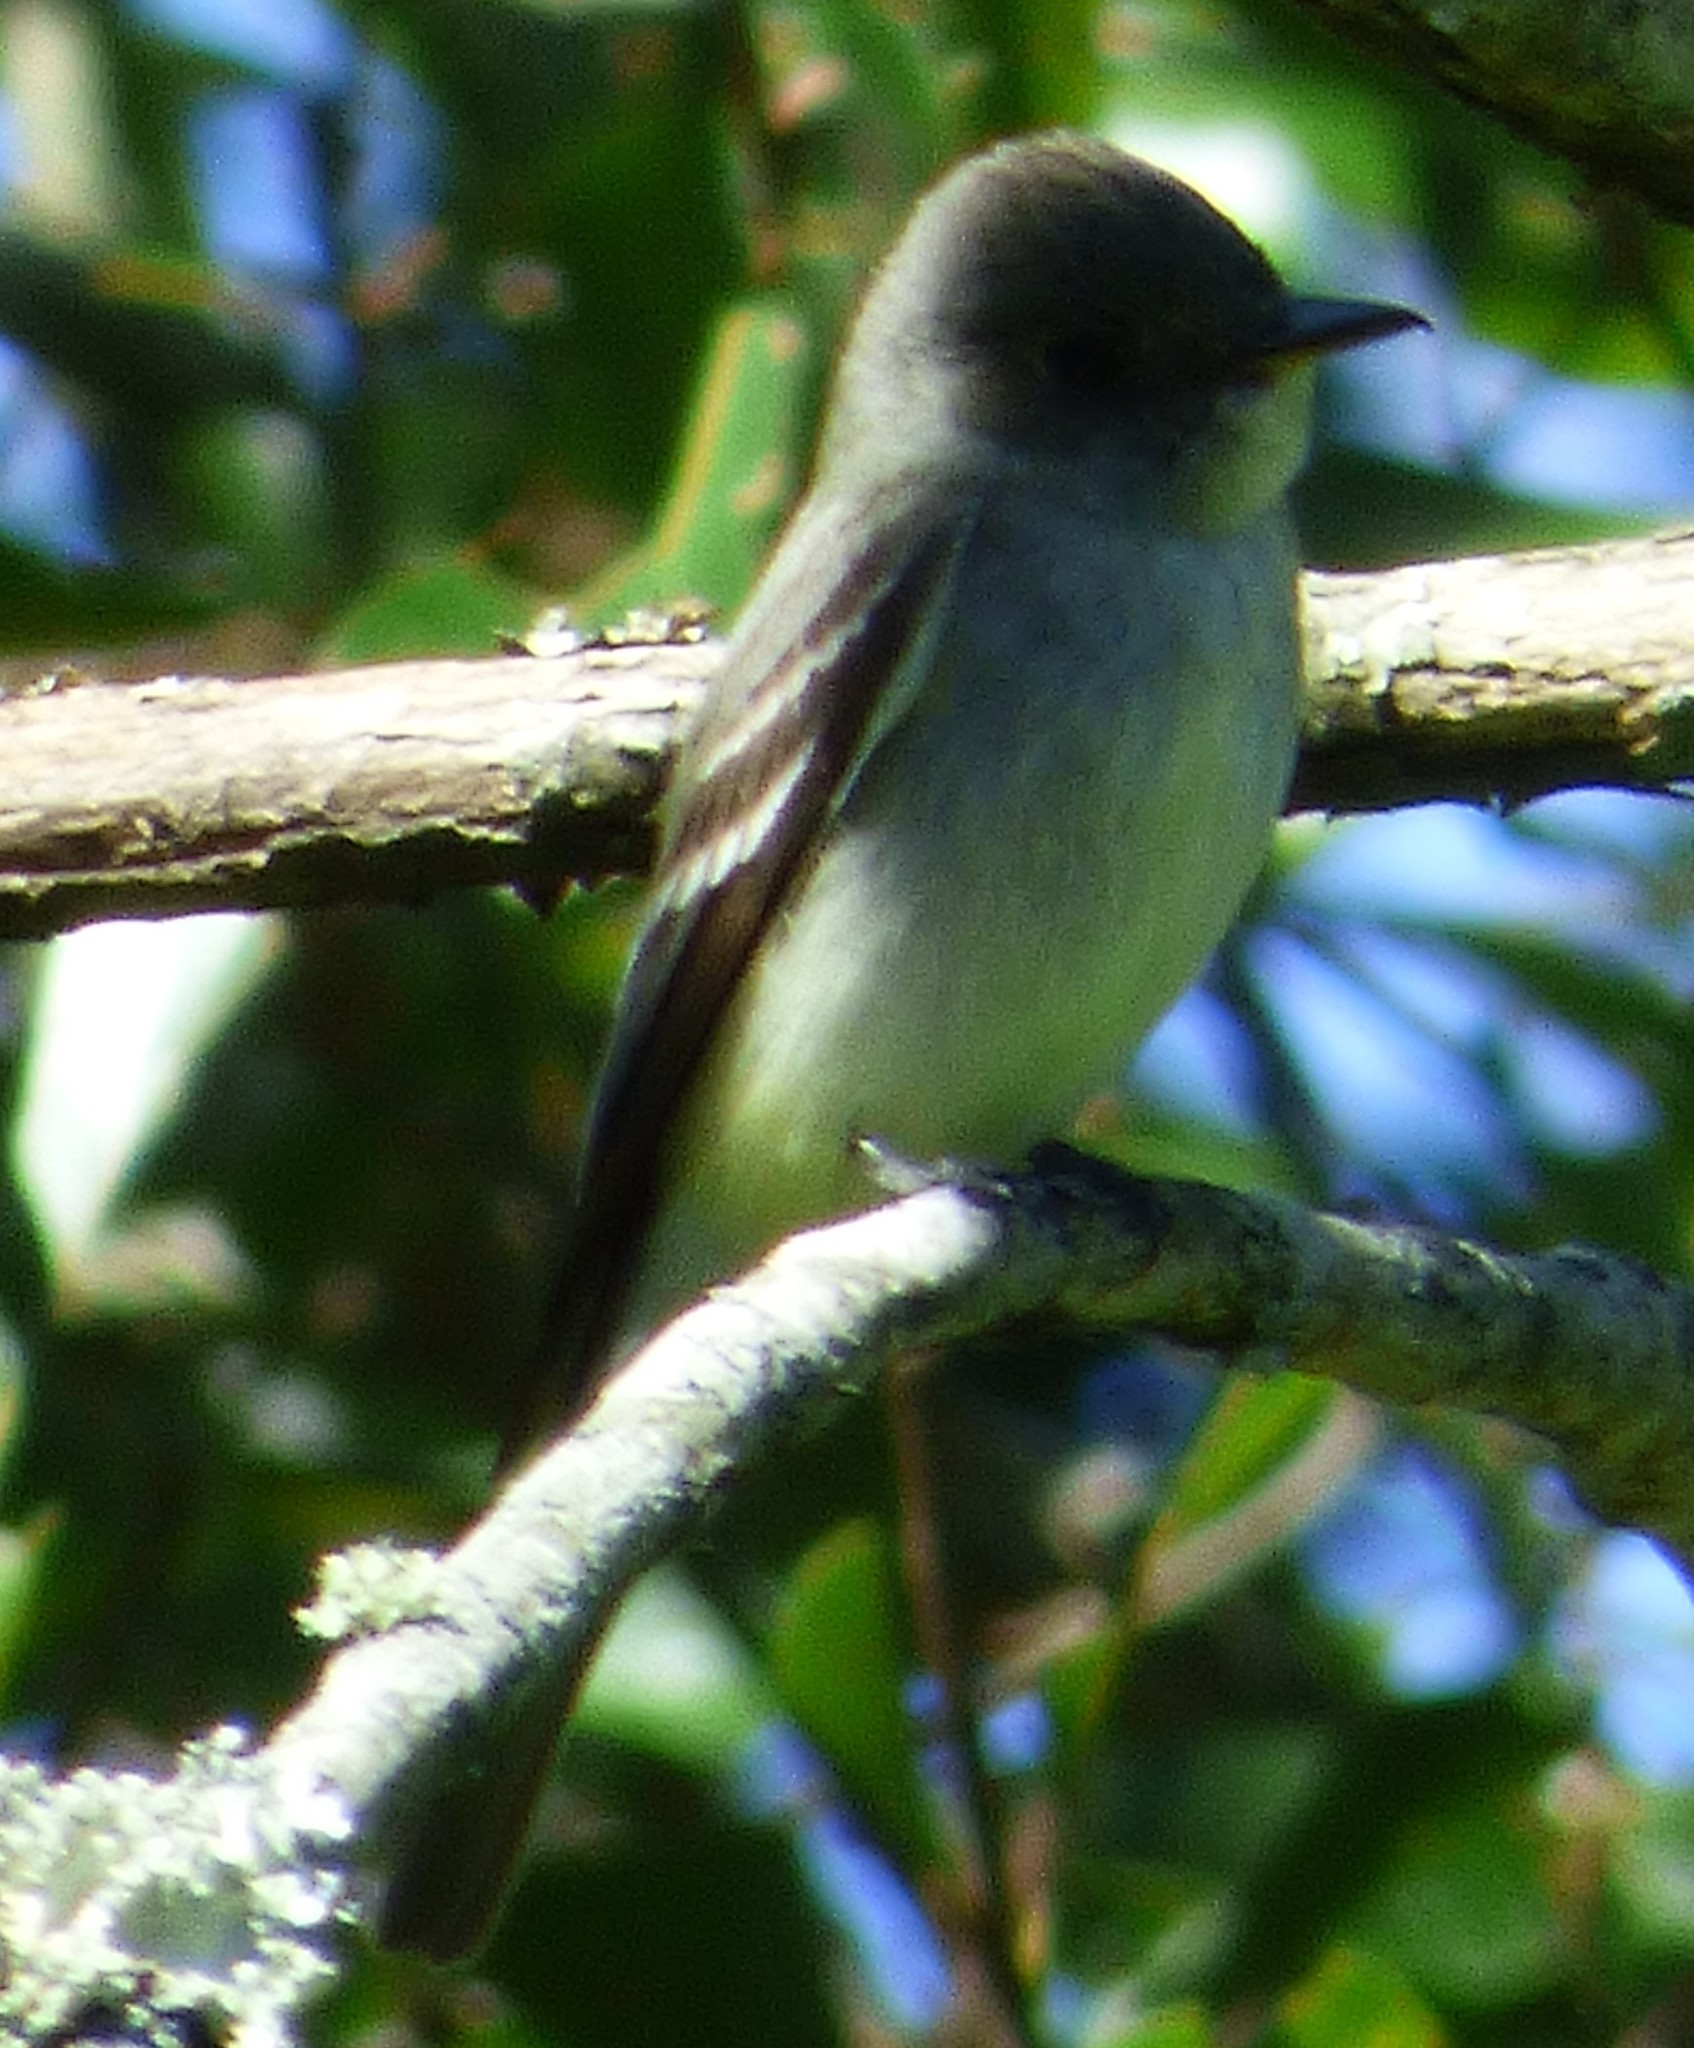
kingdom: Animalia
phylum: Chordata
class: Aves
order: Passeriformes
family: Tyrannidae
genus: Contopus
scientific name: Contopus virens
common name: Eastern wood-pewee
